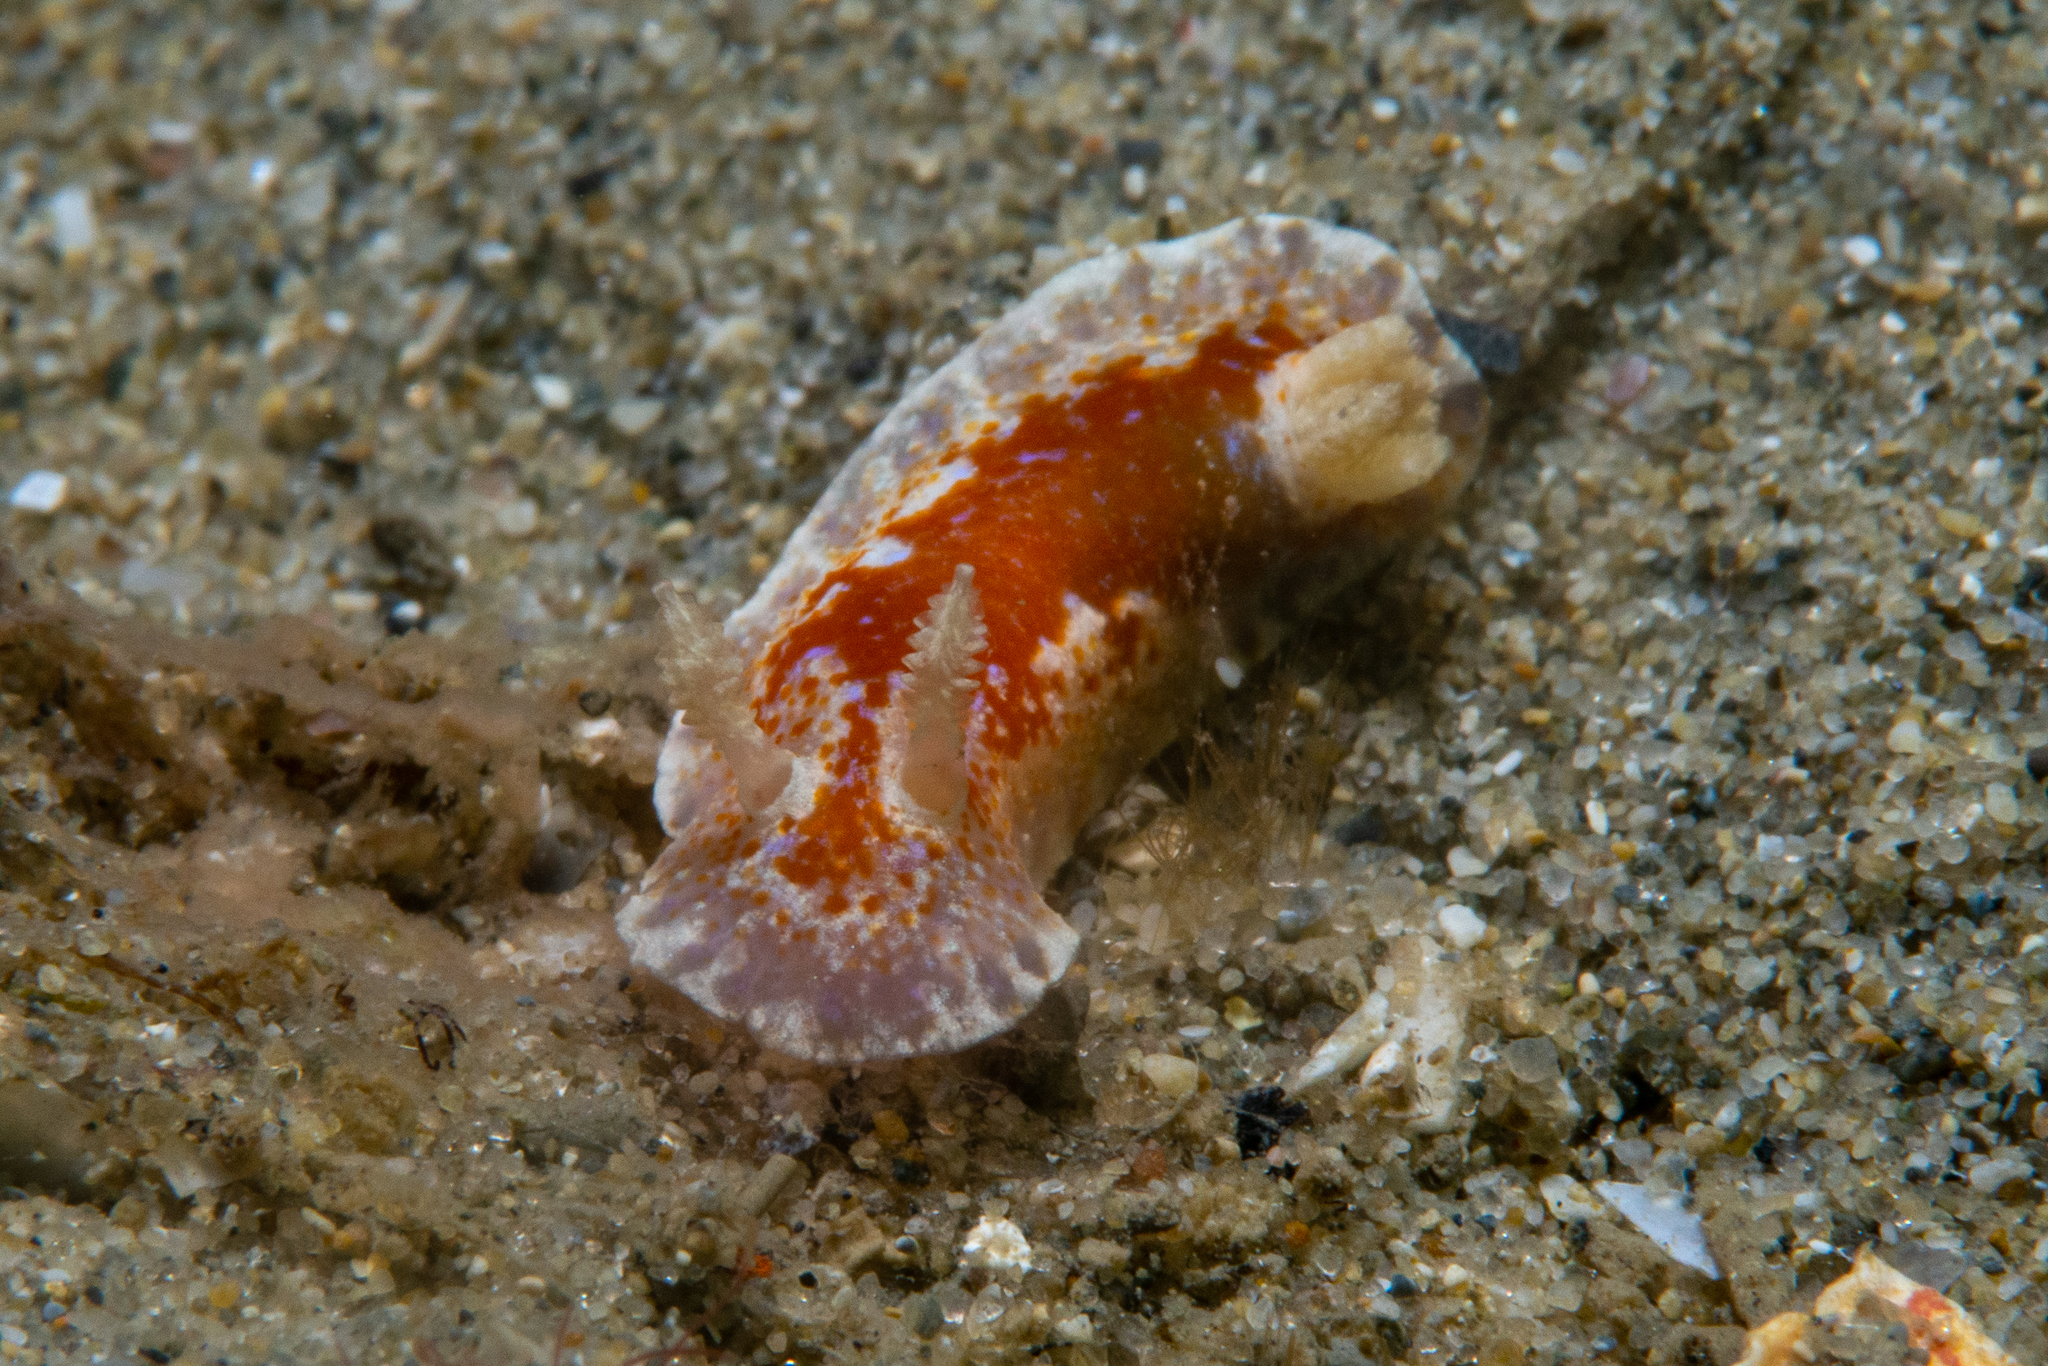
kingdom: Animalia
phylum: Mollusca
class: Gastropoda
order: Nudibranchia
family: Chromodorididae
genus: Chromodoris
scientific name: Chromodoris alternata
